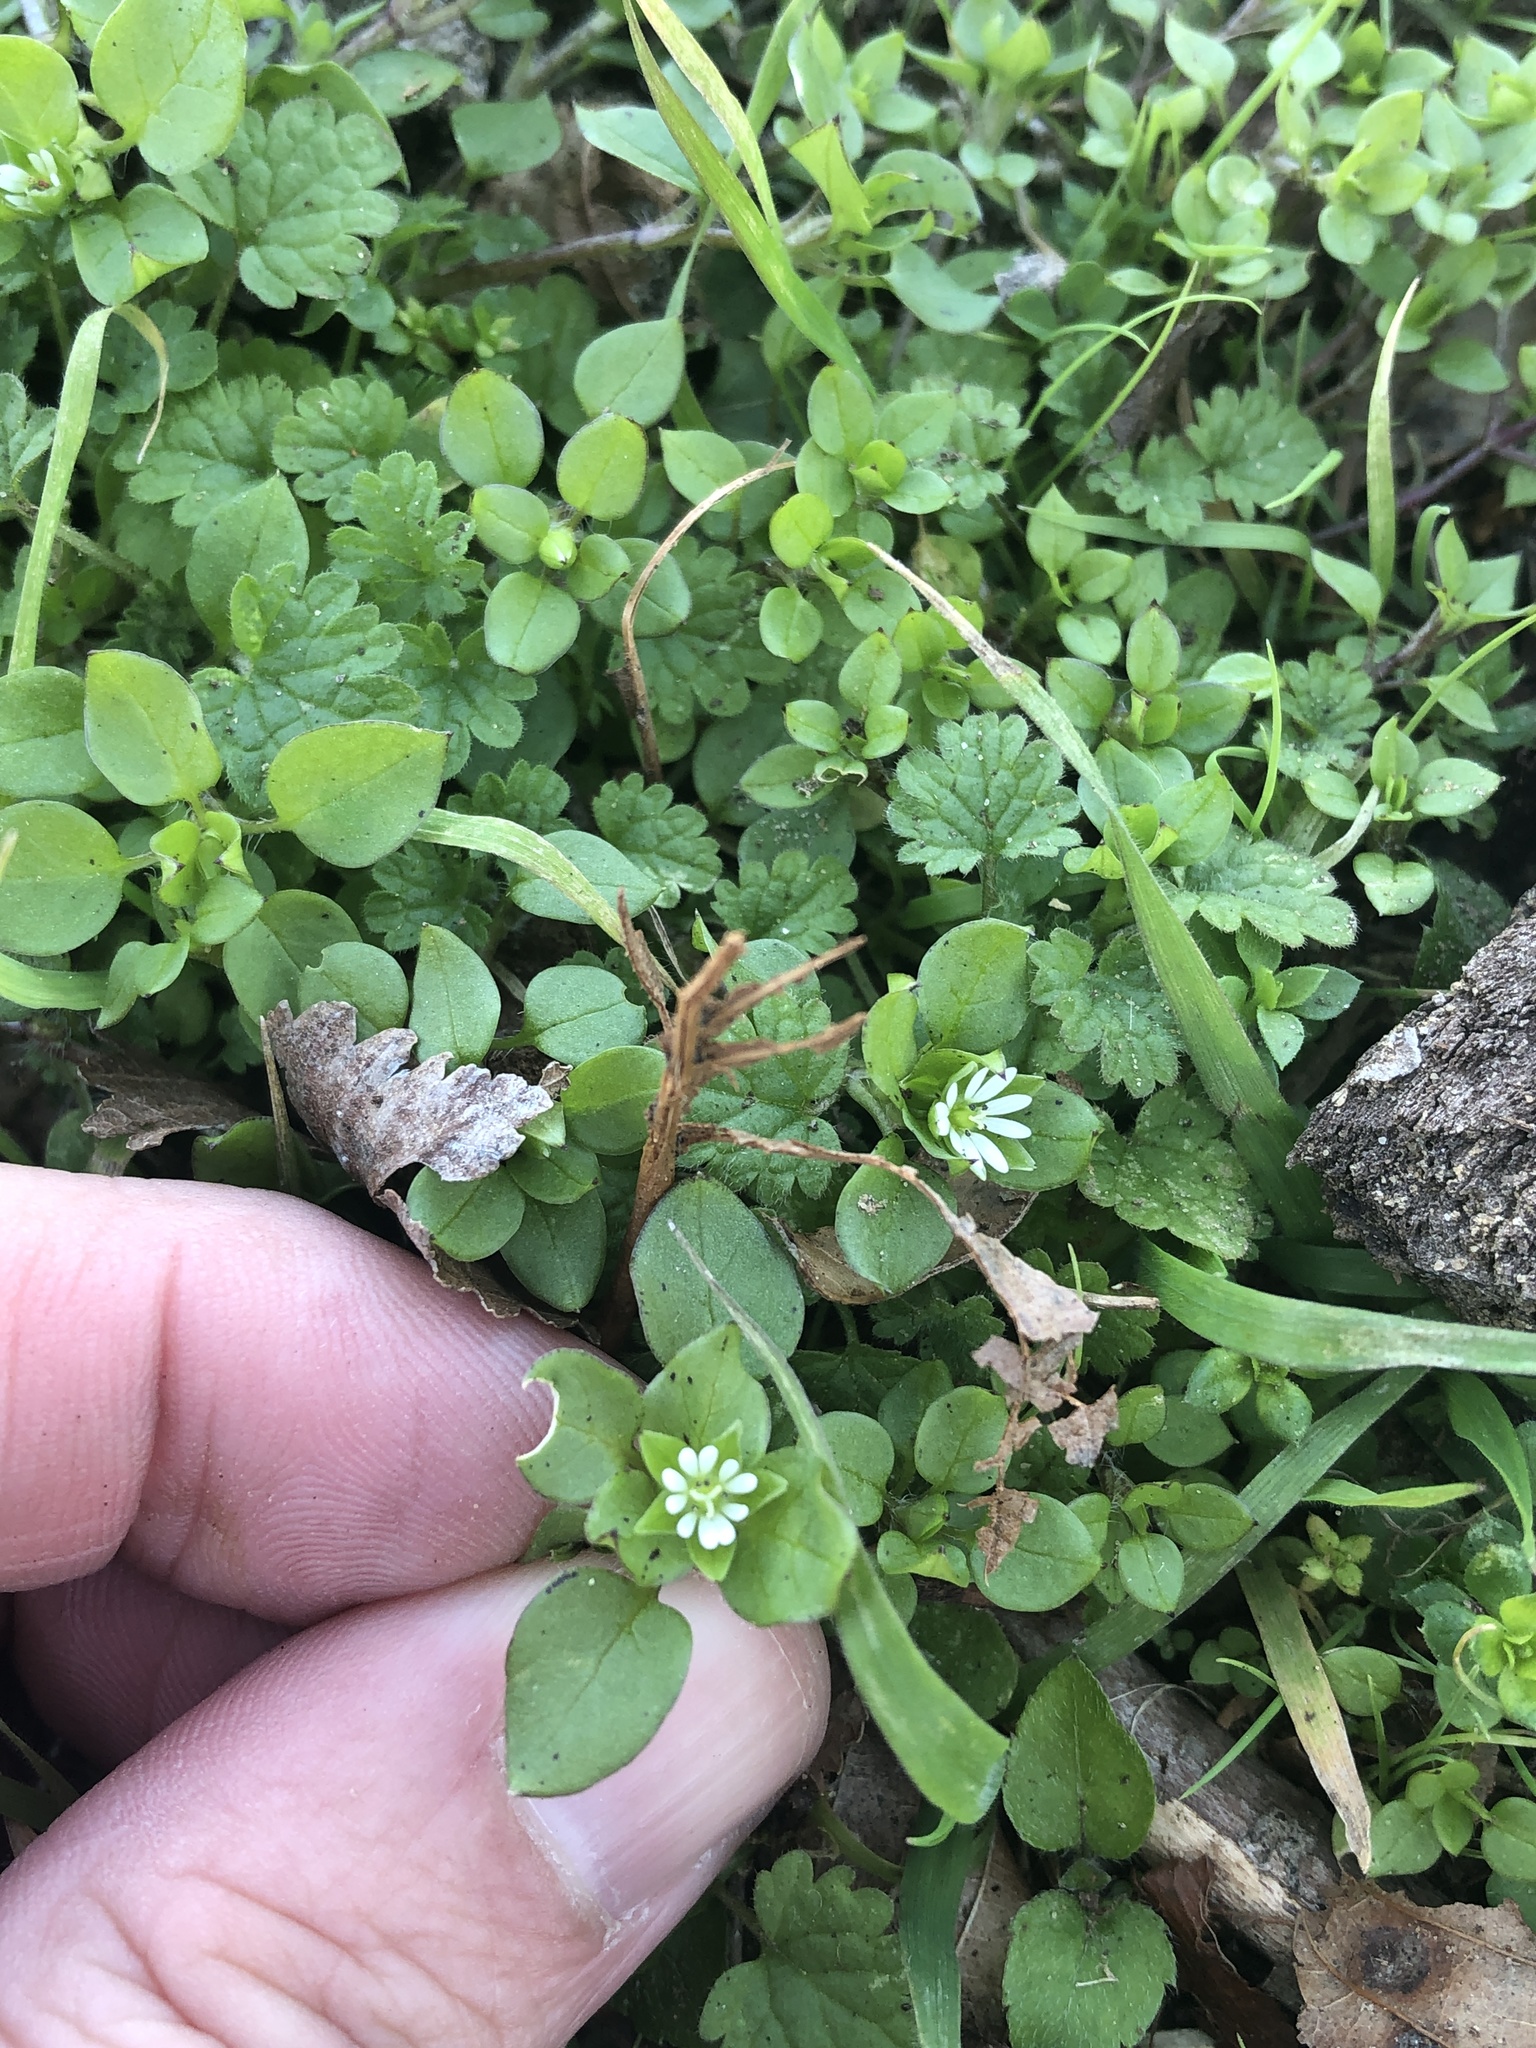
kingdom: Plantae
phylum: Tracheophyta
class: Magnoliopsida
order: Caryophyllales
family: Caryophyllaceae
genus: Stellaria
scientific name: Stellaria media
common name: Common chickweed
